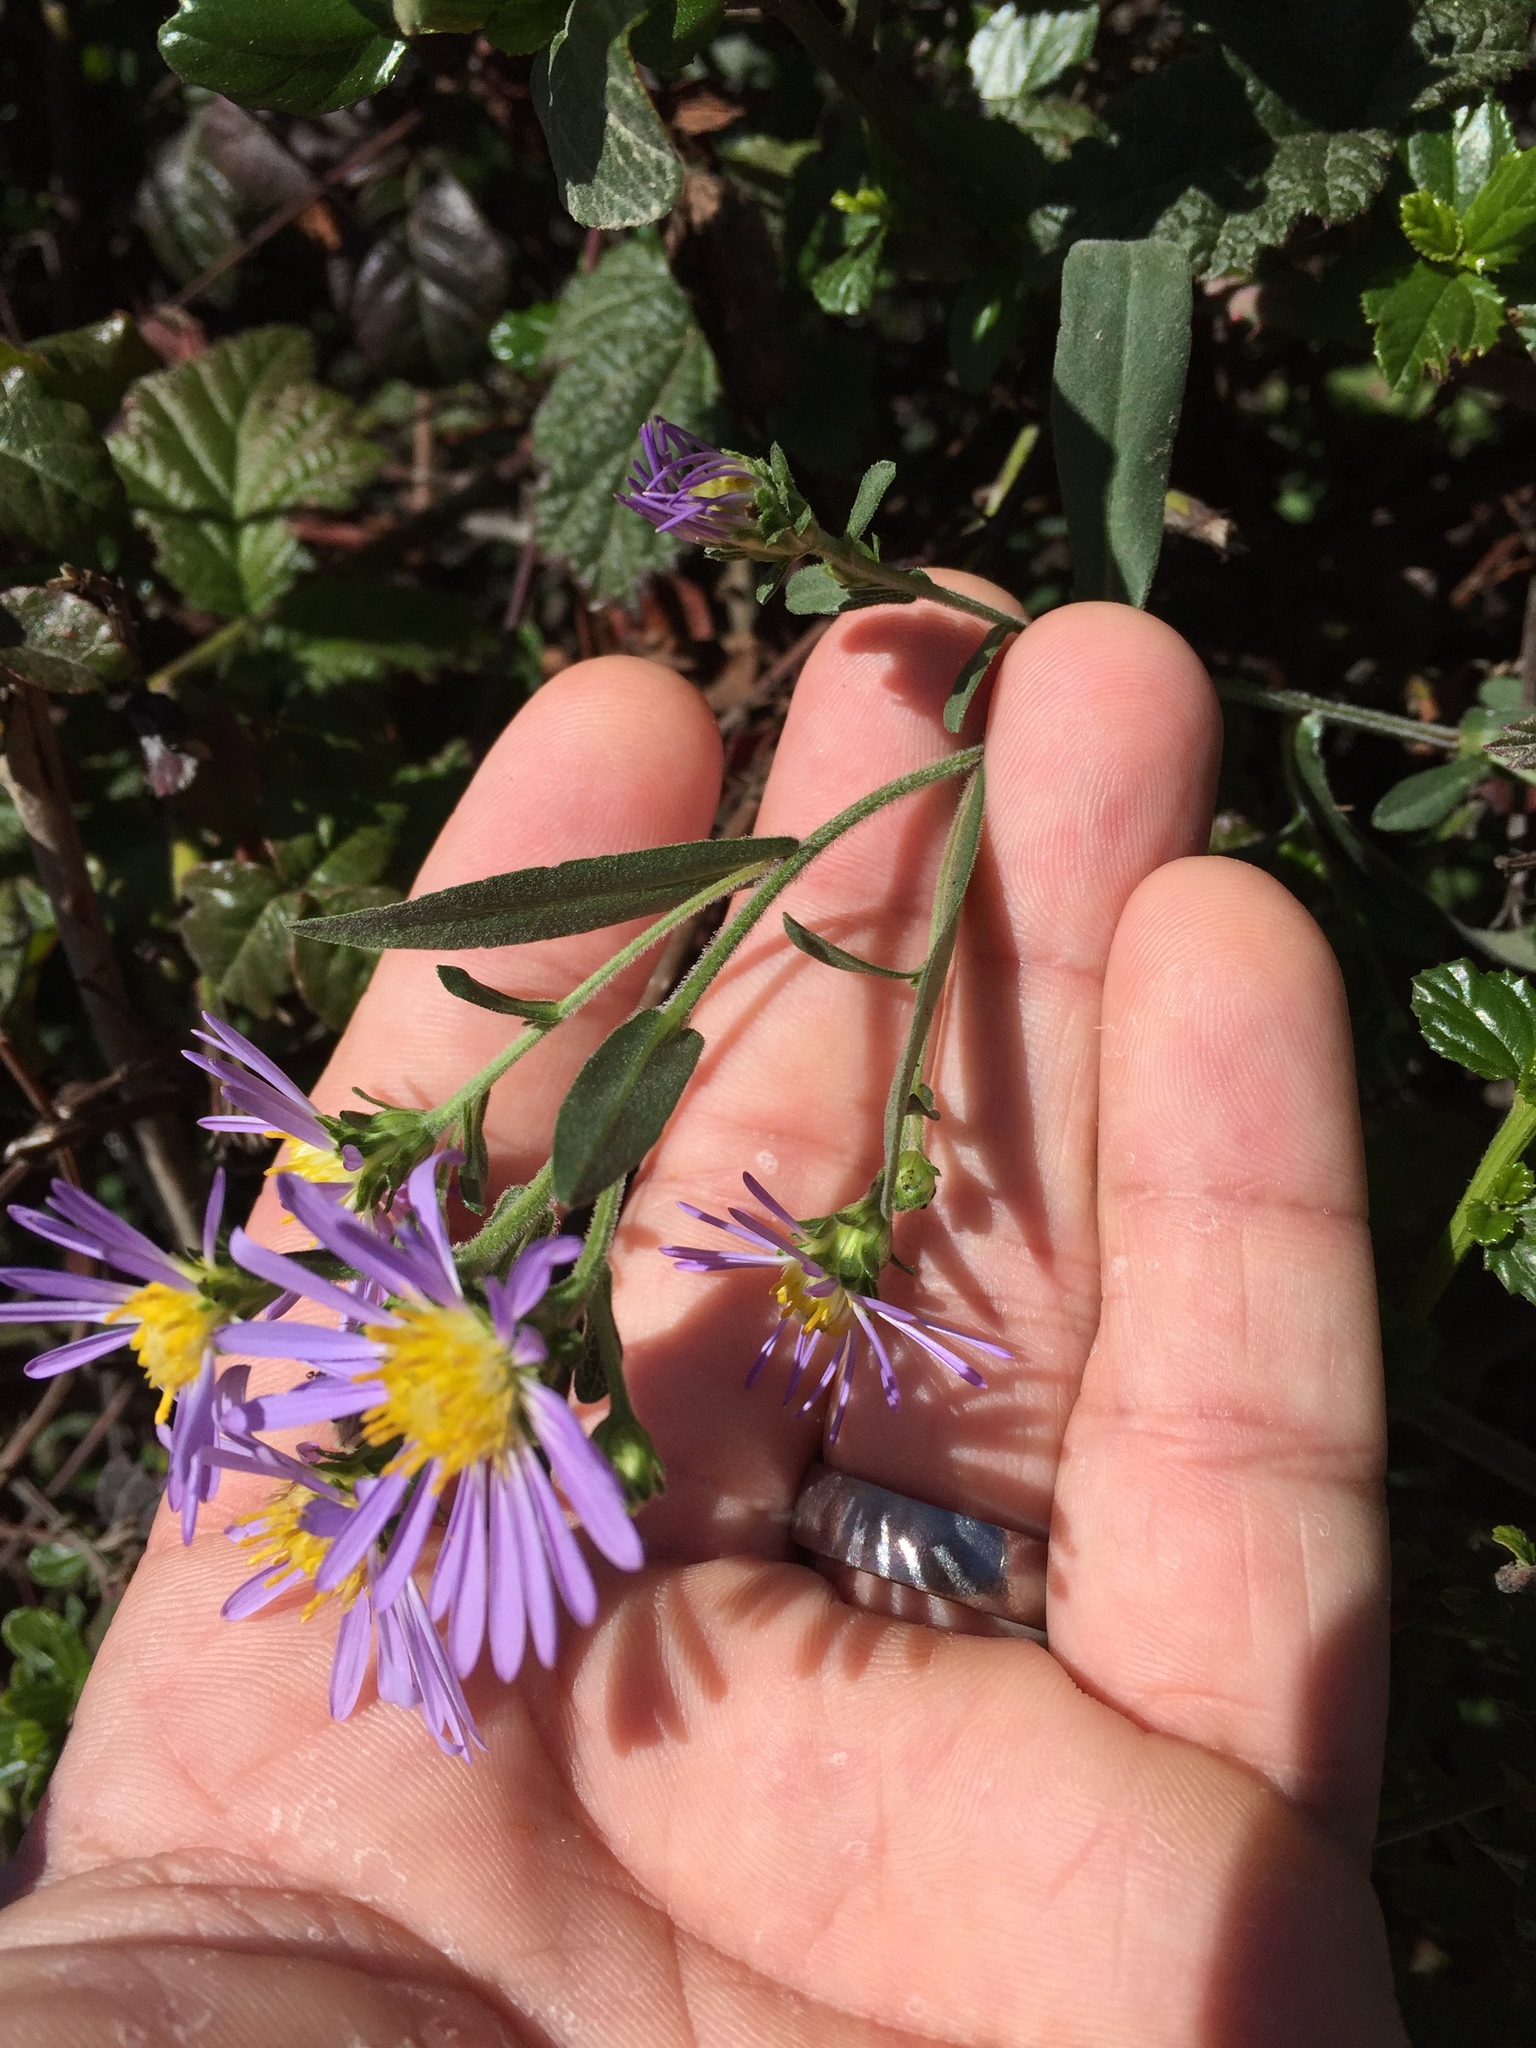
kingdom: Plantae
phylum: Tracheophyta
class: Magnoliopsida
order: Asterales
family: Asteraceae
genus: Symphyotrichum
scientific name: Symphyotrichum chilense
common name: Pacific aster
